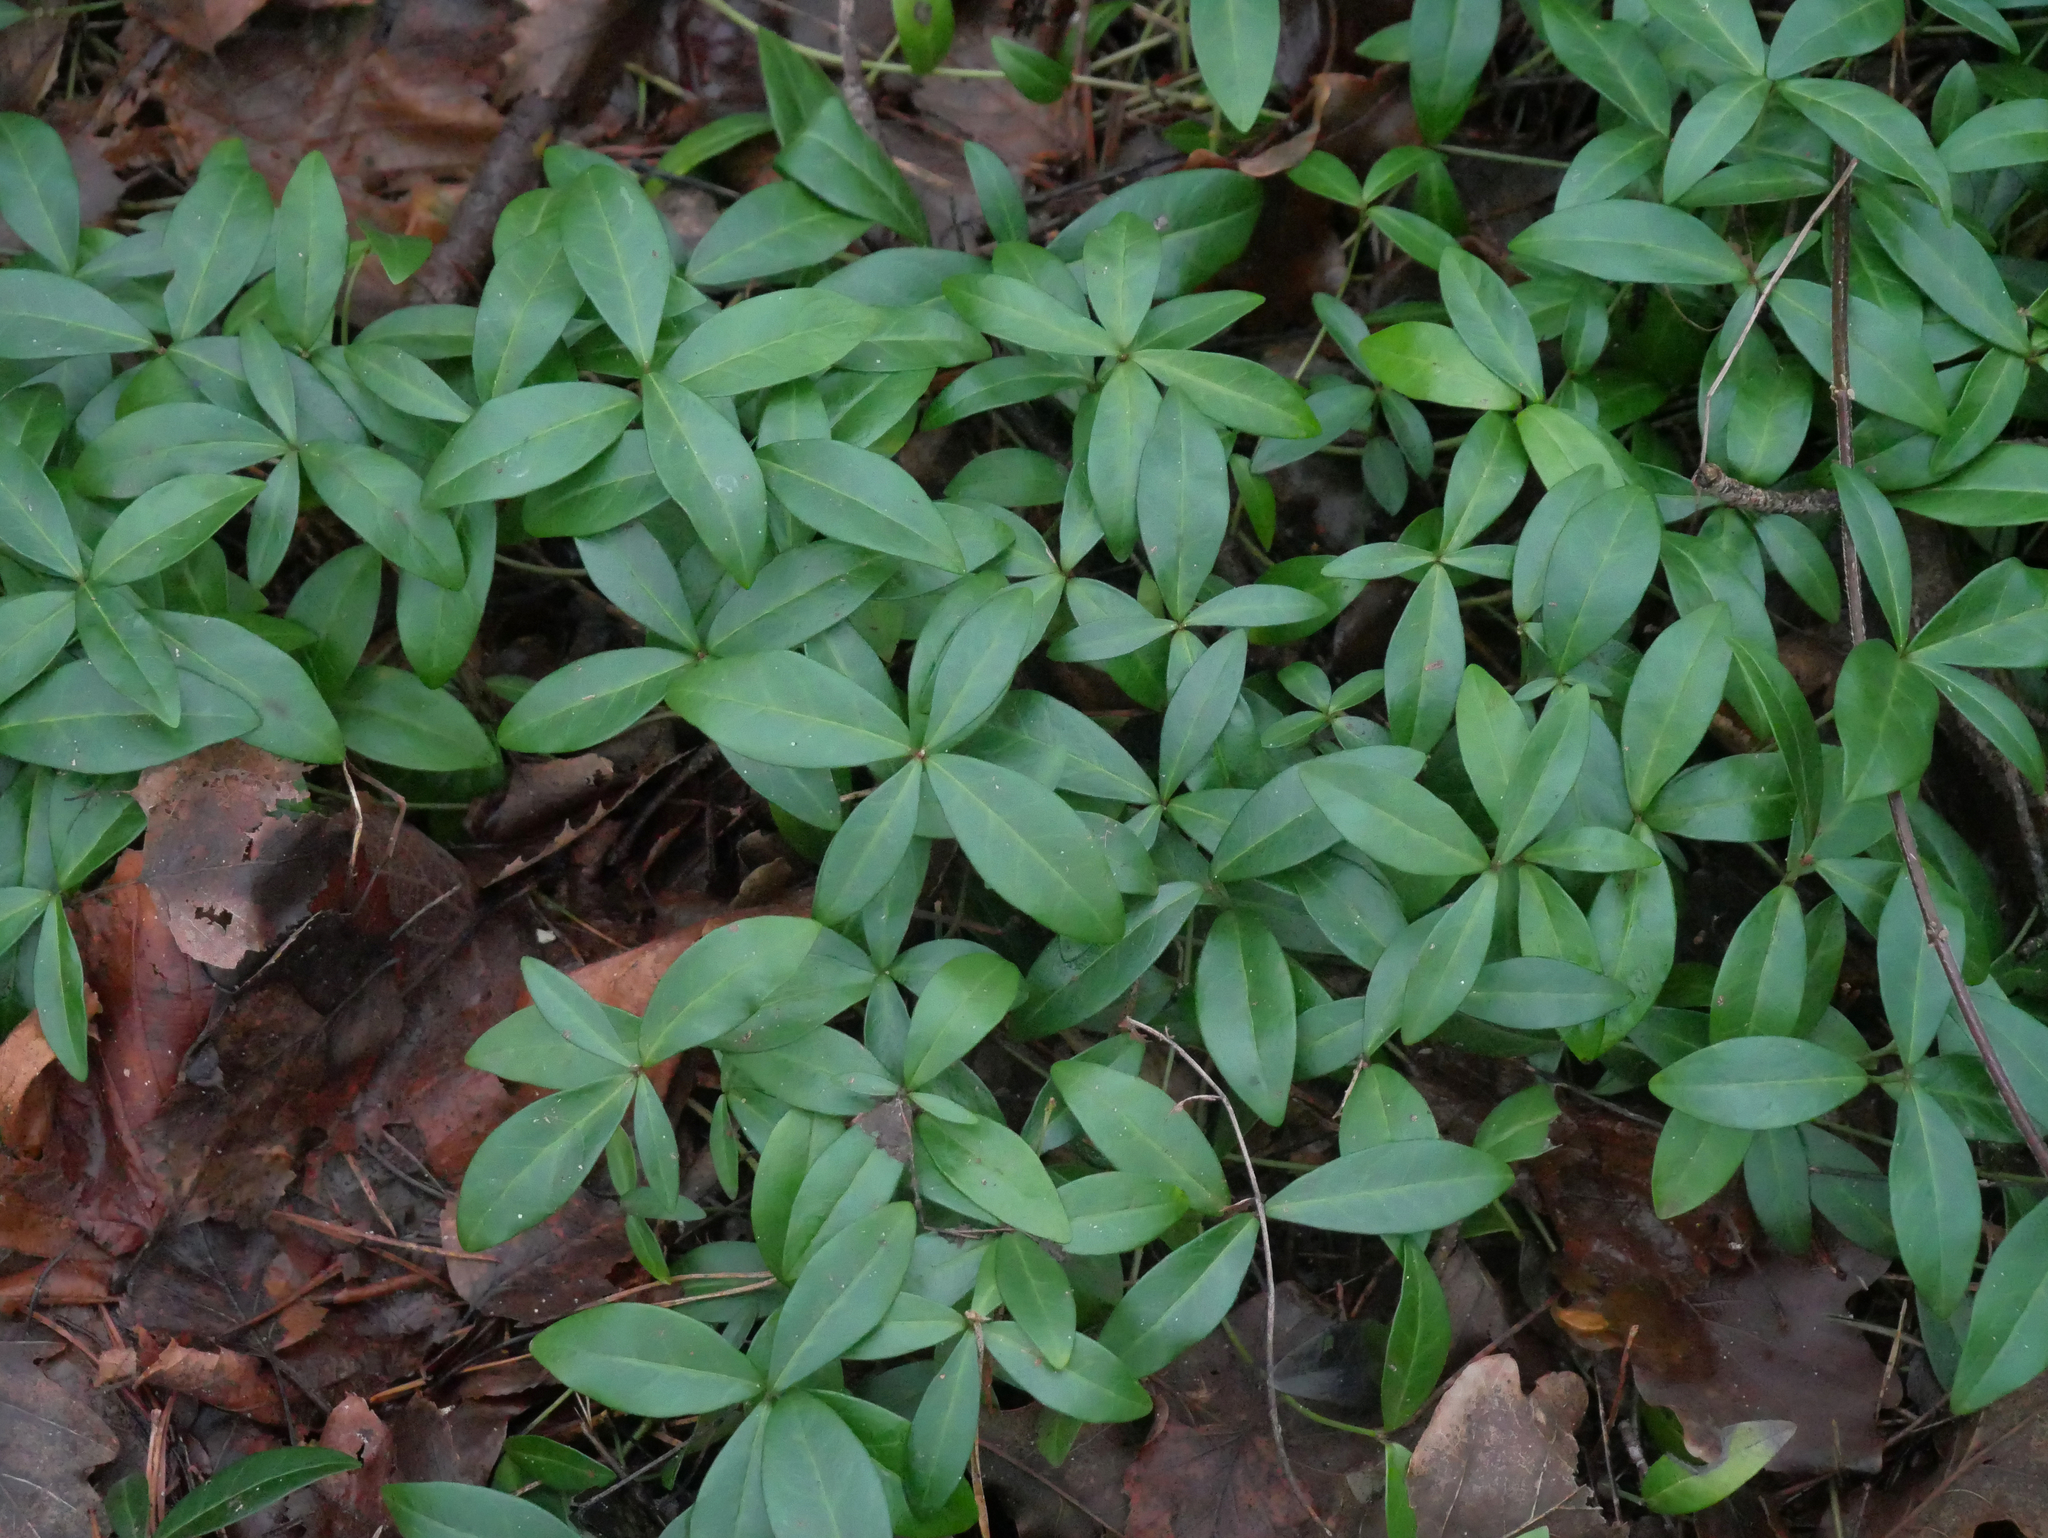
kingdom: Plantae
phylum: Tracheophyta
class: Magnoliopsida
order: Gentianales
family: Apocynaceae
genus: Vinca
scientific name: Vinca minor
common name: Lesser periwinkle
